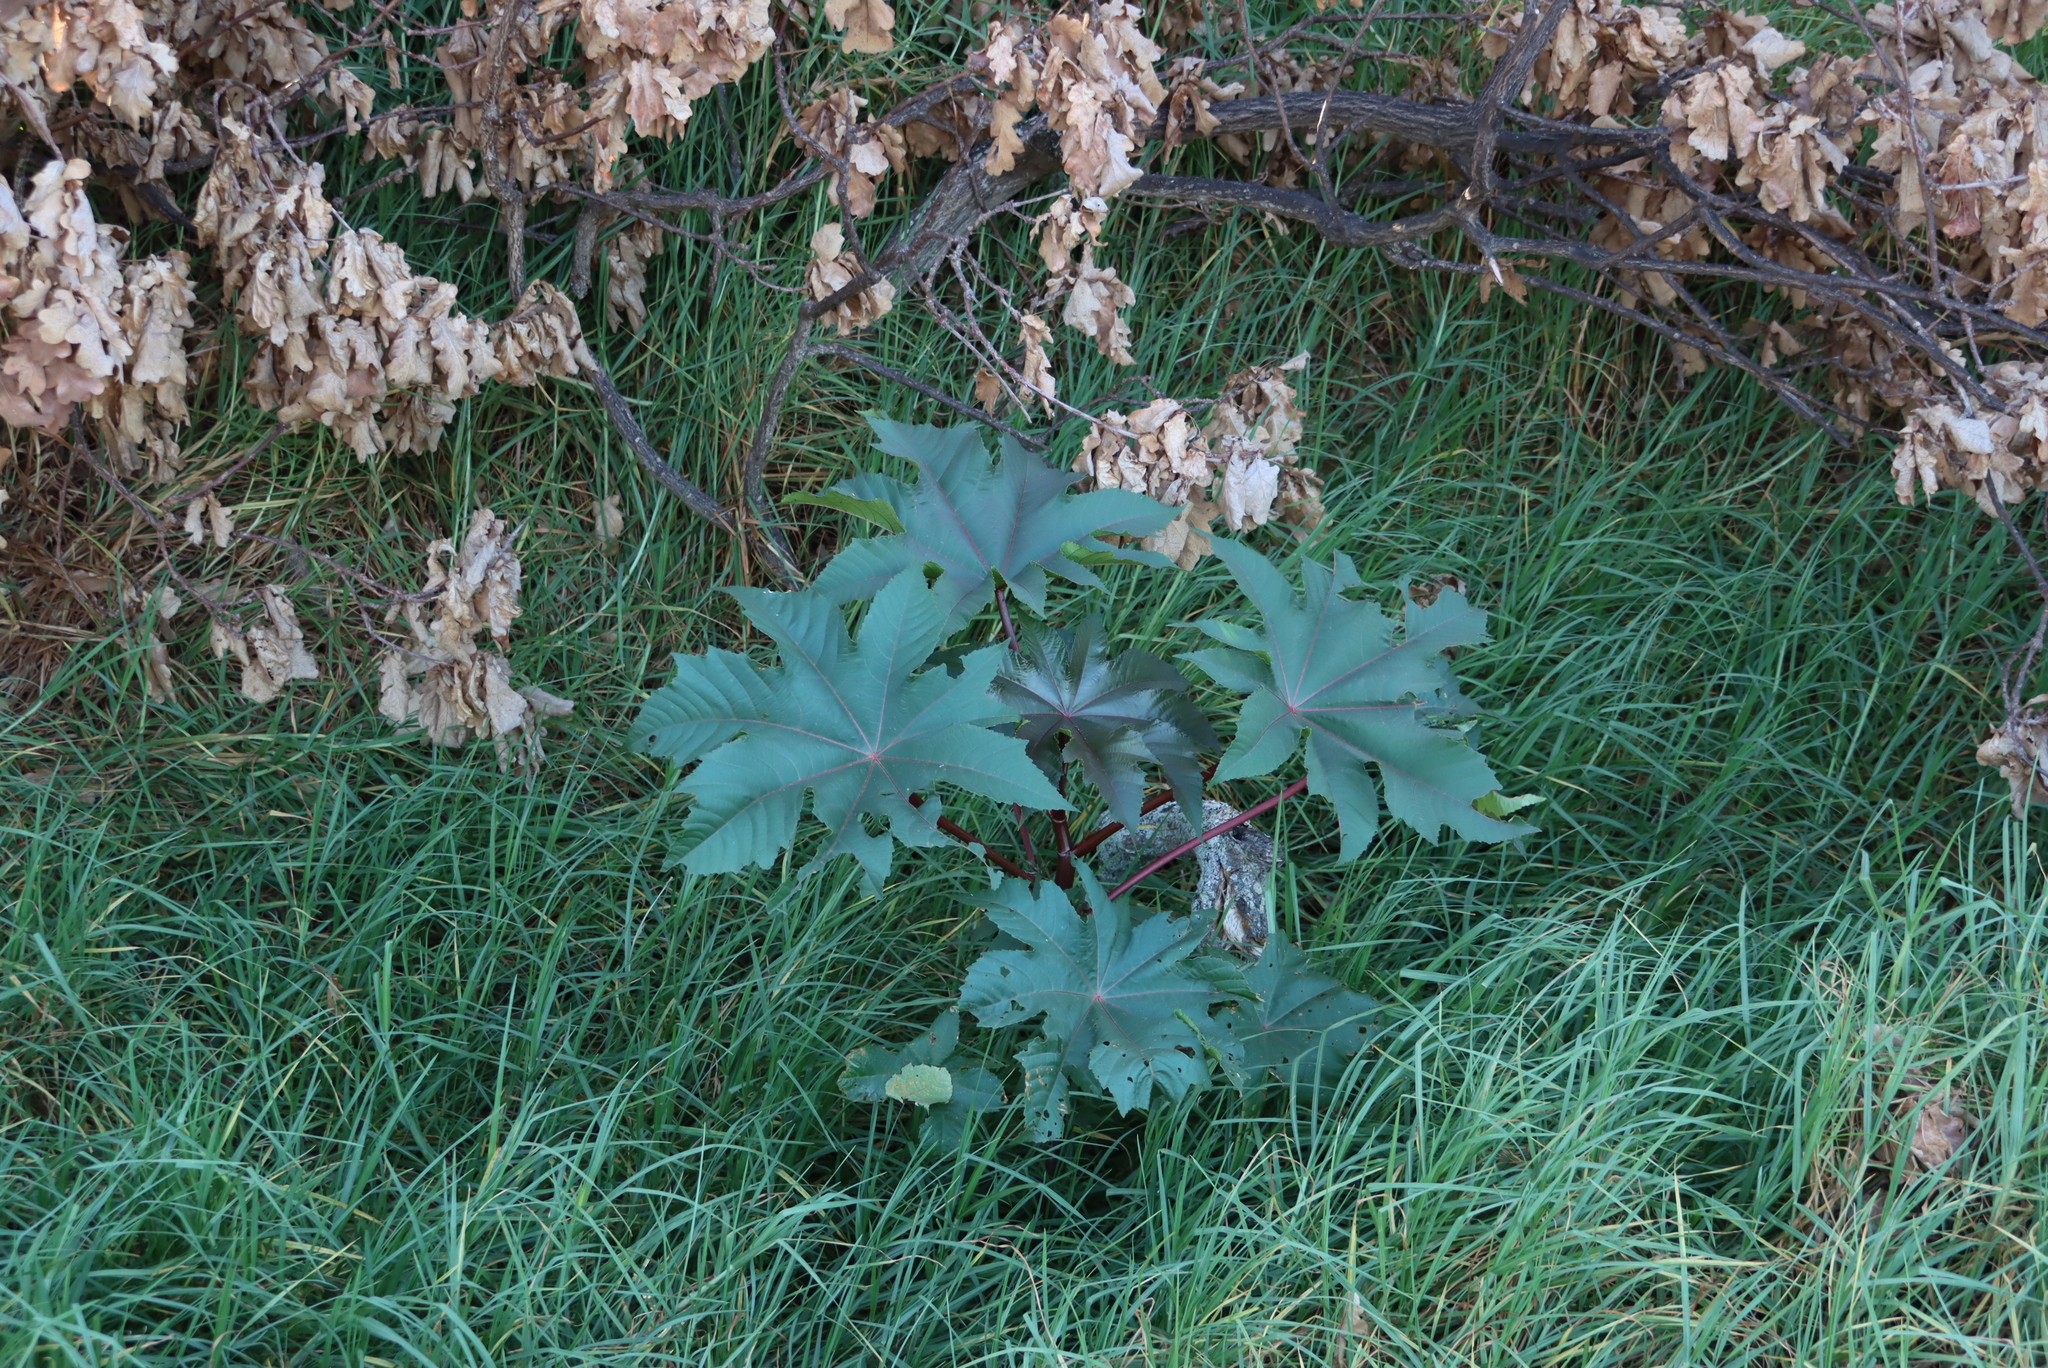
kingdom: Plantae
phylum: Tracheophyta
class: Magnoliopsida
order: Malpighiales
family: Euphorbiaceae
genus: Ricinus
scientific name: Ricinus communis
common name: Castor-oil-plant
